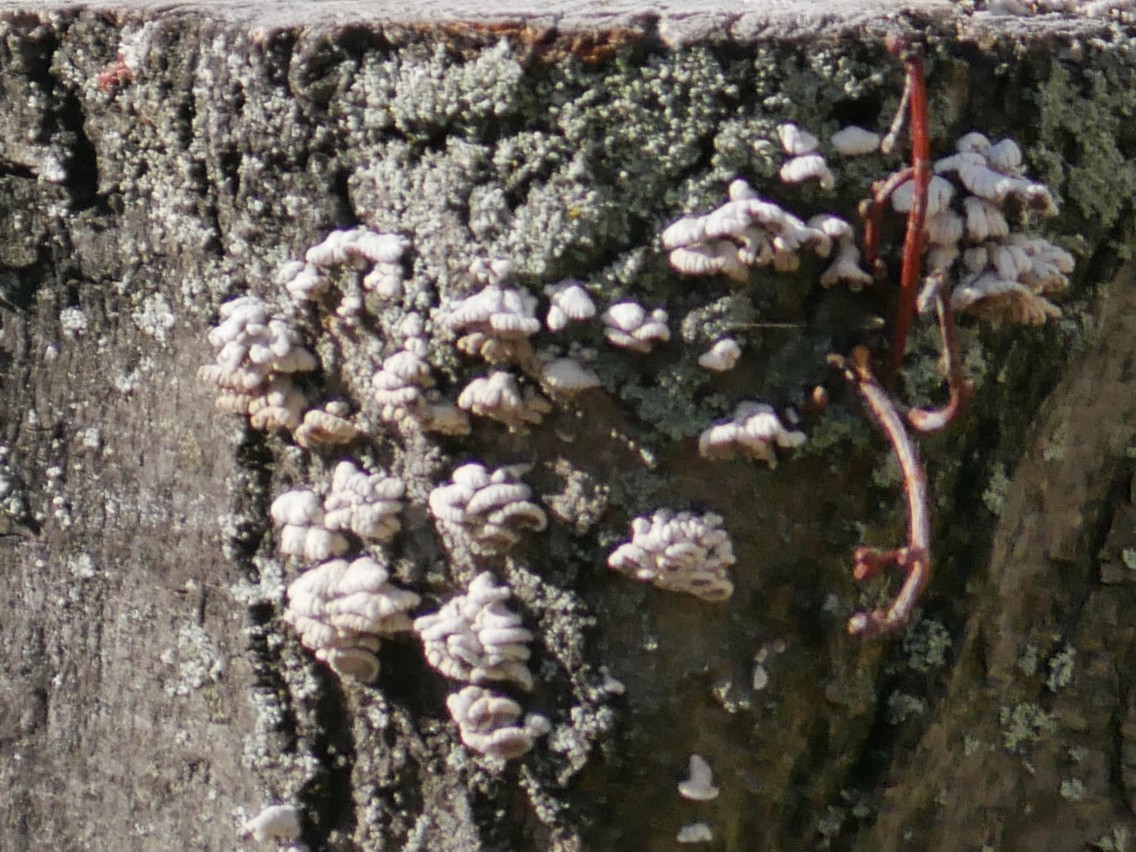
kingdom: Fungi
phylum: Basidiomycota
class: Agaricomycetes
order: Agaricales
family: Schizophyllaceae
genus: Schizophyllum
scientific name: Schizophyllum commune
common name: Common porecrust
